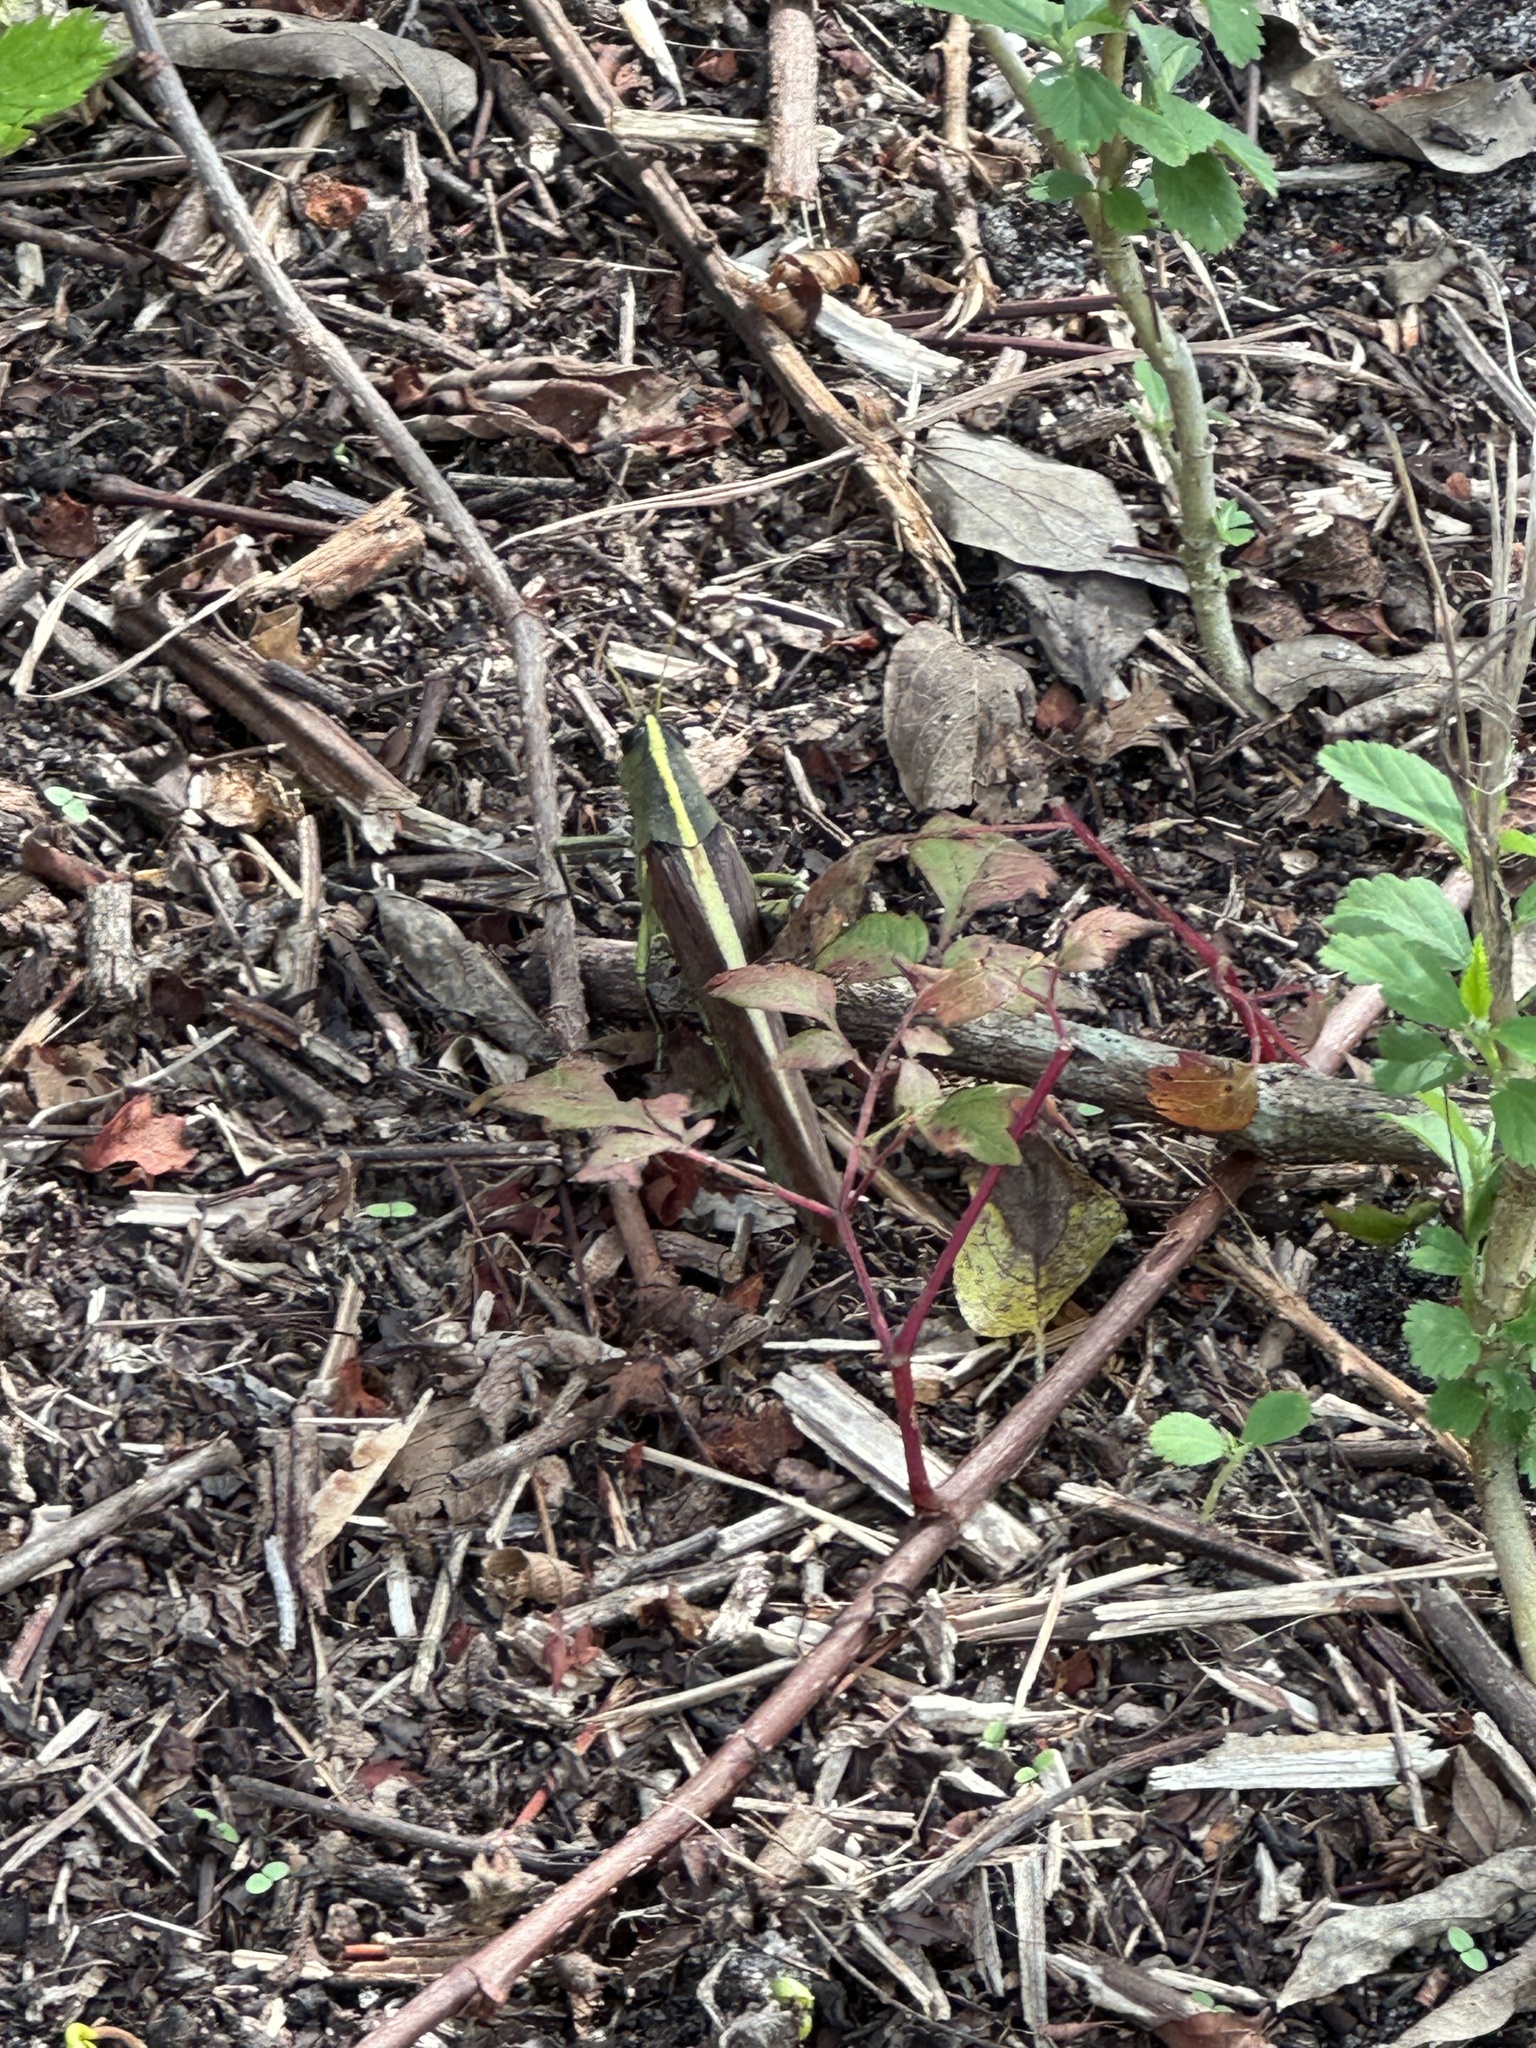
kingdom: Animalia
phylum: Arthropoda
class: Insecta
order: Orthoptera
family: Acrididae
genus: Schistocerca
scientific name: Schistocerca obscura
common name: Obscure bird grasshopper
